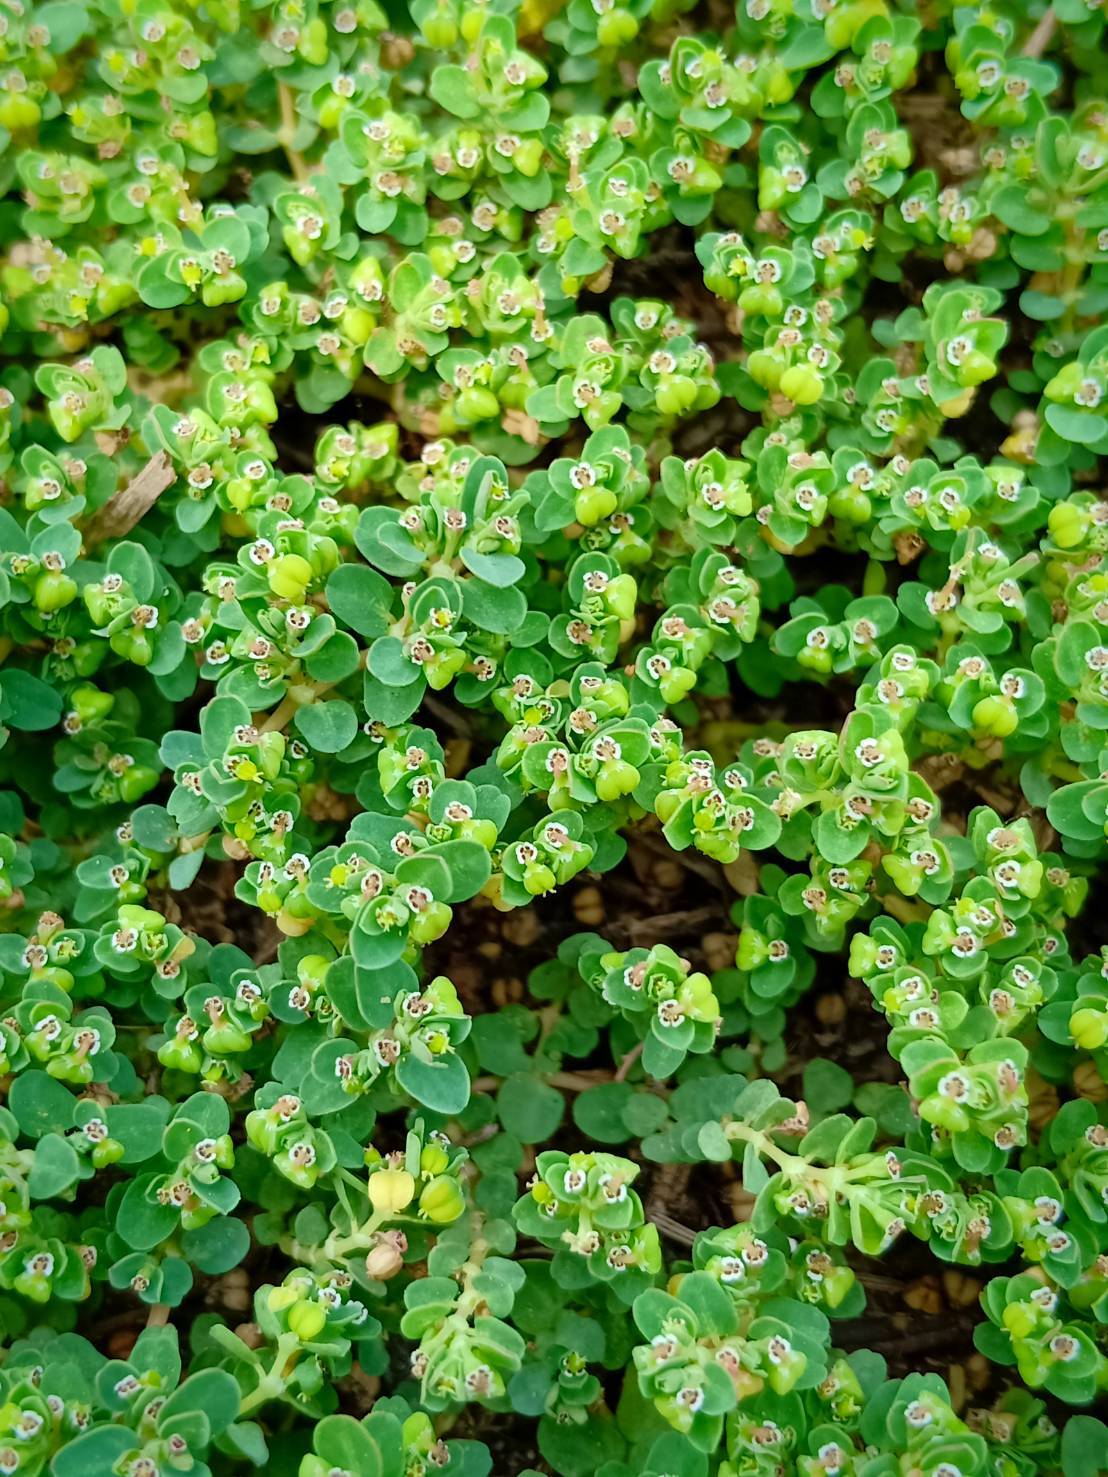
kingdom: Plantae
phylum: Tracheophyta
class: Magnoliopsida
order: Malpighiales
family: Euphorbiaceae
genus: Euphorbia
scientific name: Euphorbia serpens
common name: Matted sandmat
